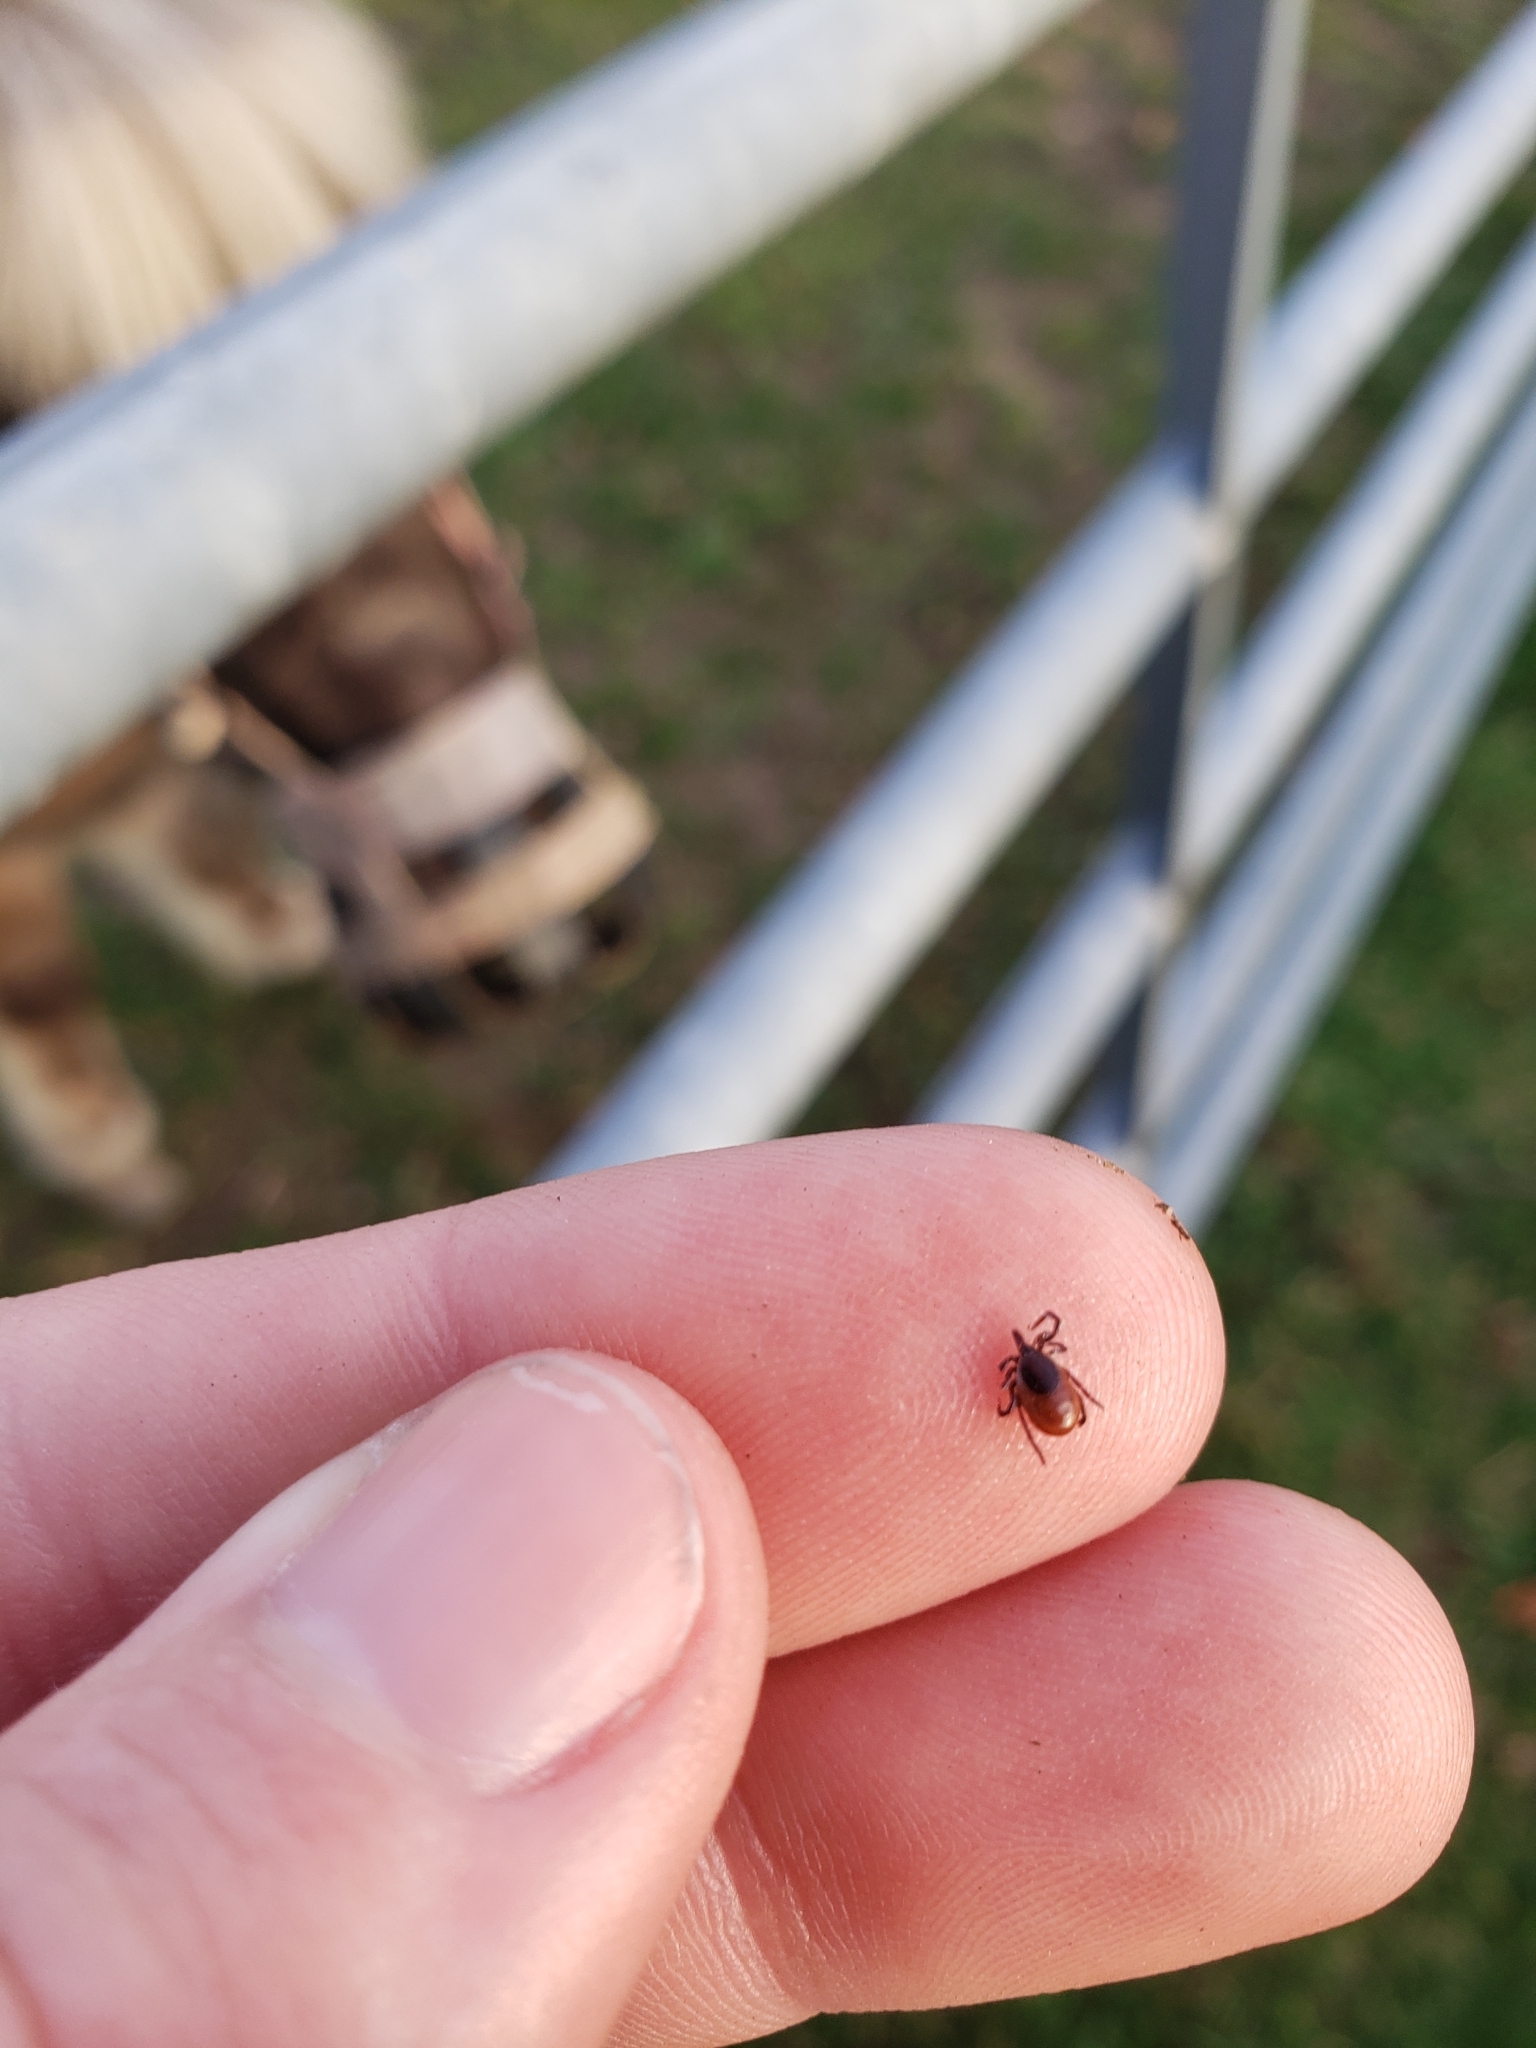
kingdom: Animalia
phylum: Arthropoda
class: Arachnida
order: Ixodida
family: Ixodidae
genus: Ixodes
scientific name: Ixodes scapularis
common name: Black legged tick
